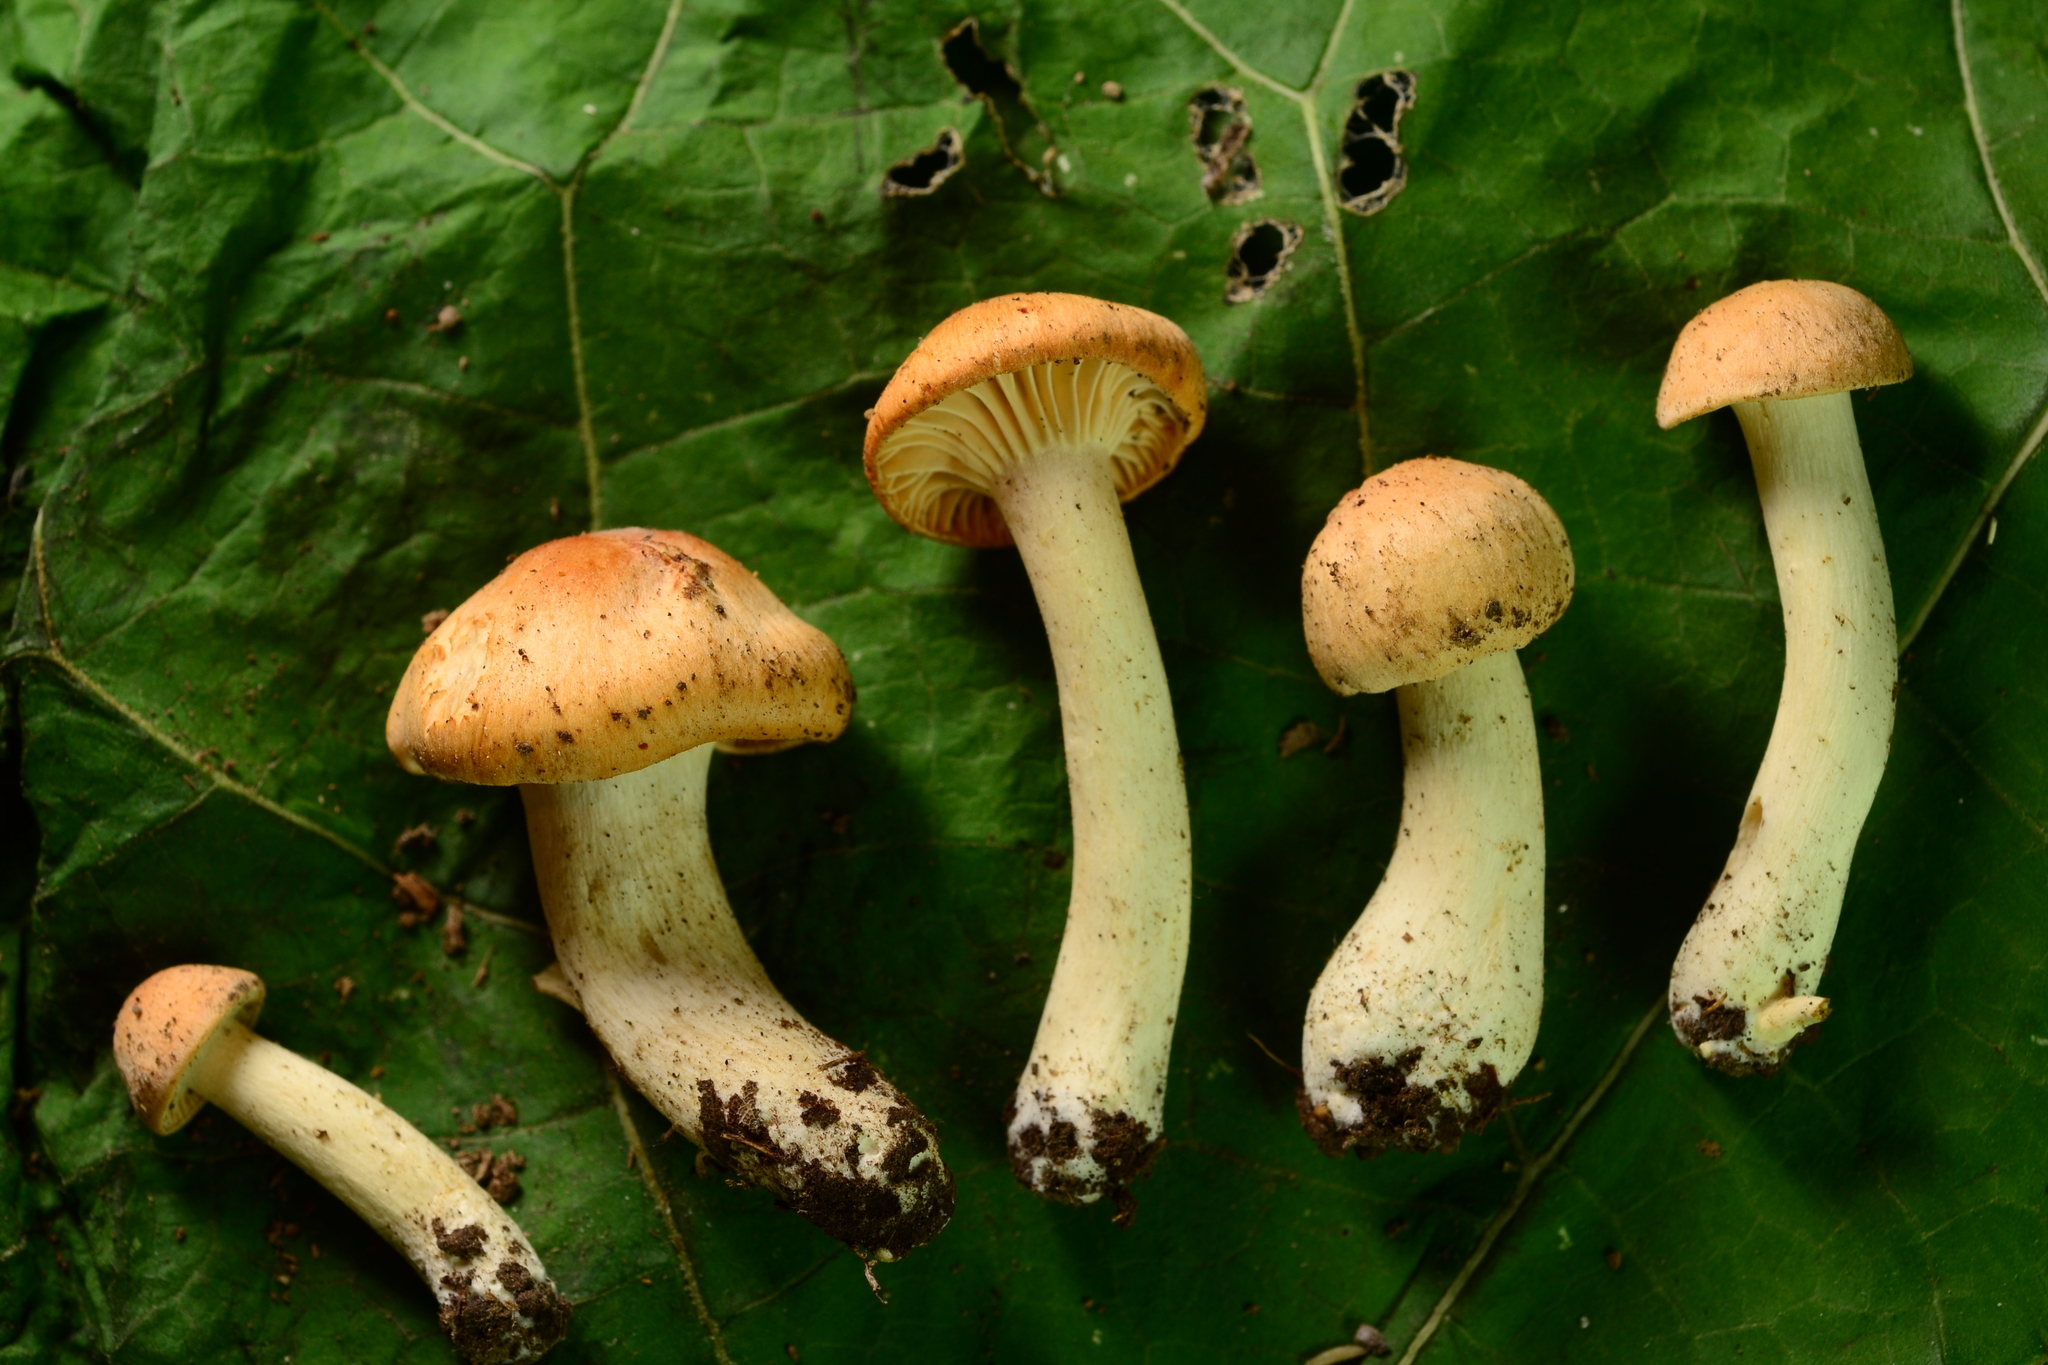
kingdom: Fungi
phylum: Basidiomycota
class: Agaricomycetes
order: Agaricales
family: Hygrophoraceae
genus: Cuphophyllus
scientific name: Cuphophyllus pratensis
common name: Meadow waxcap
